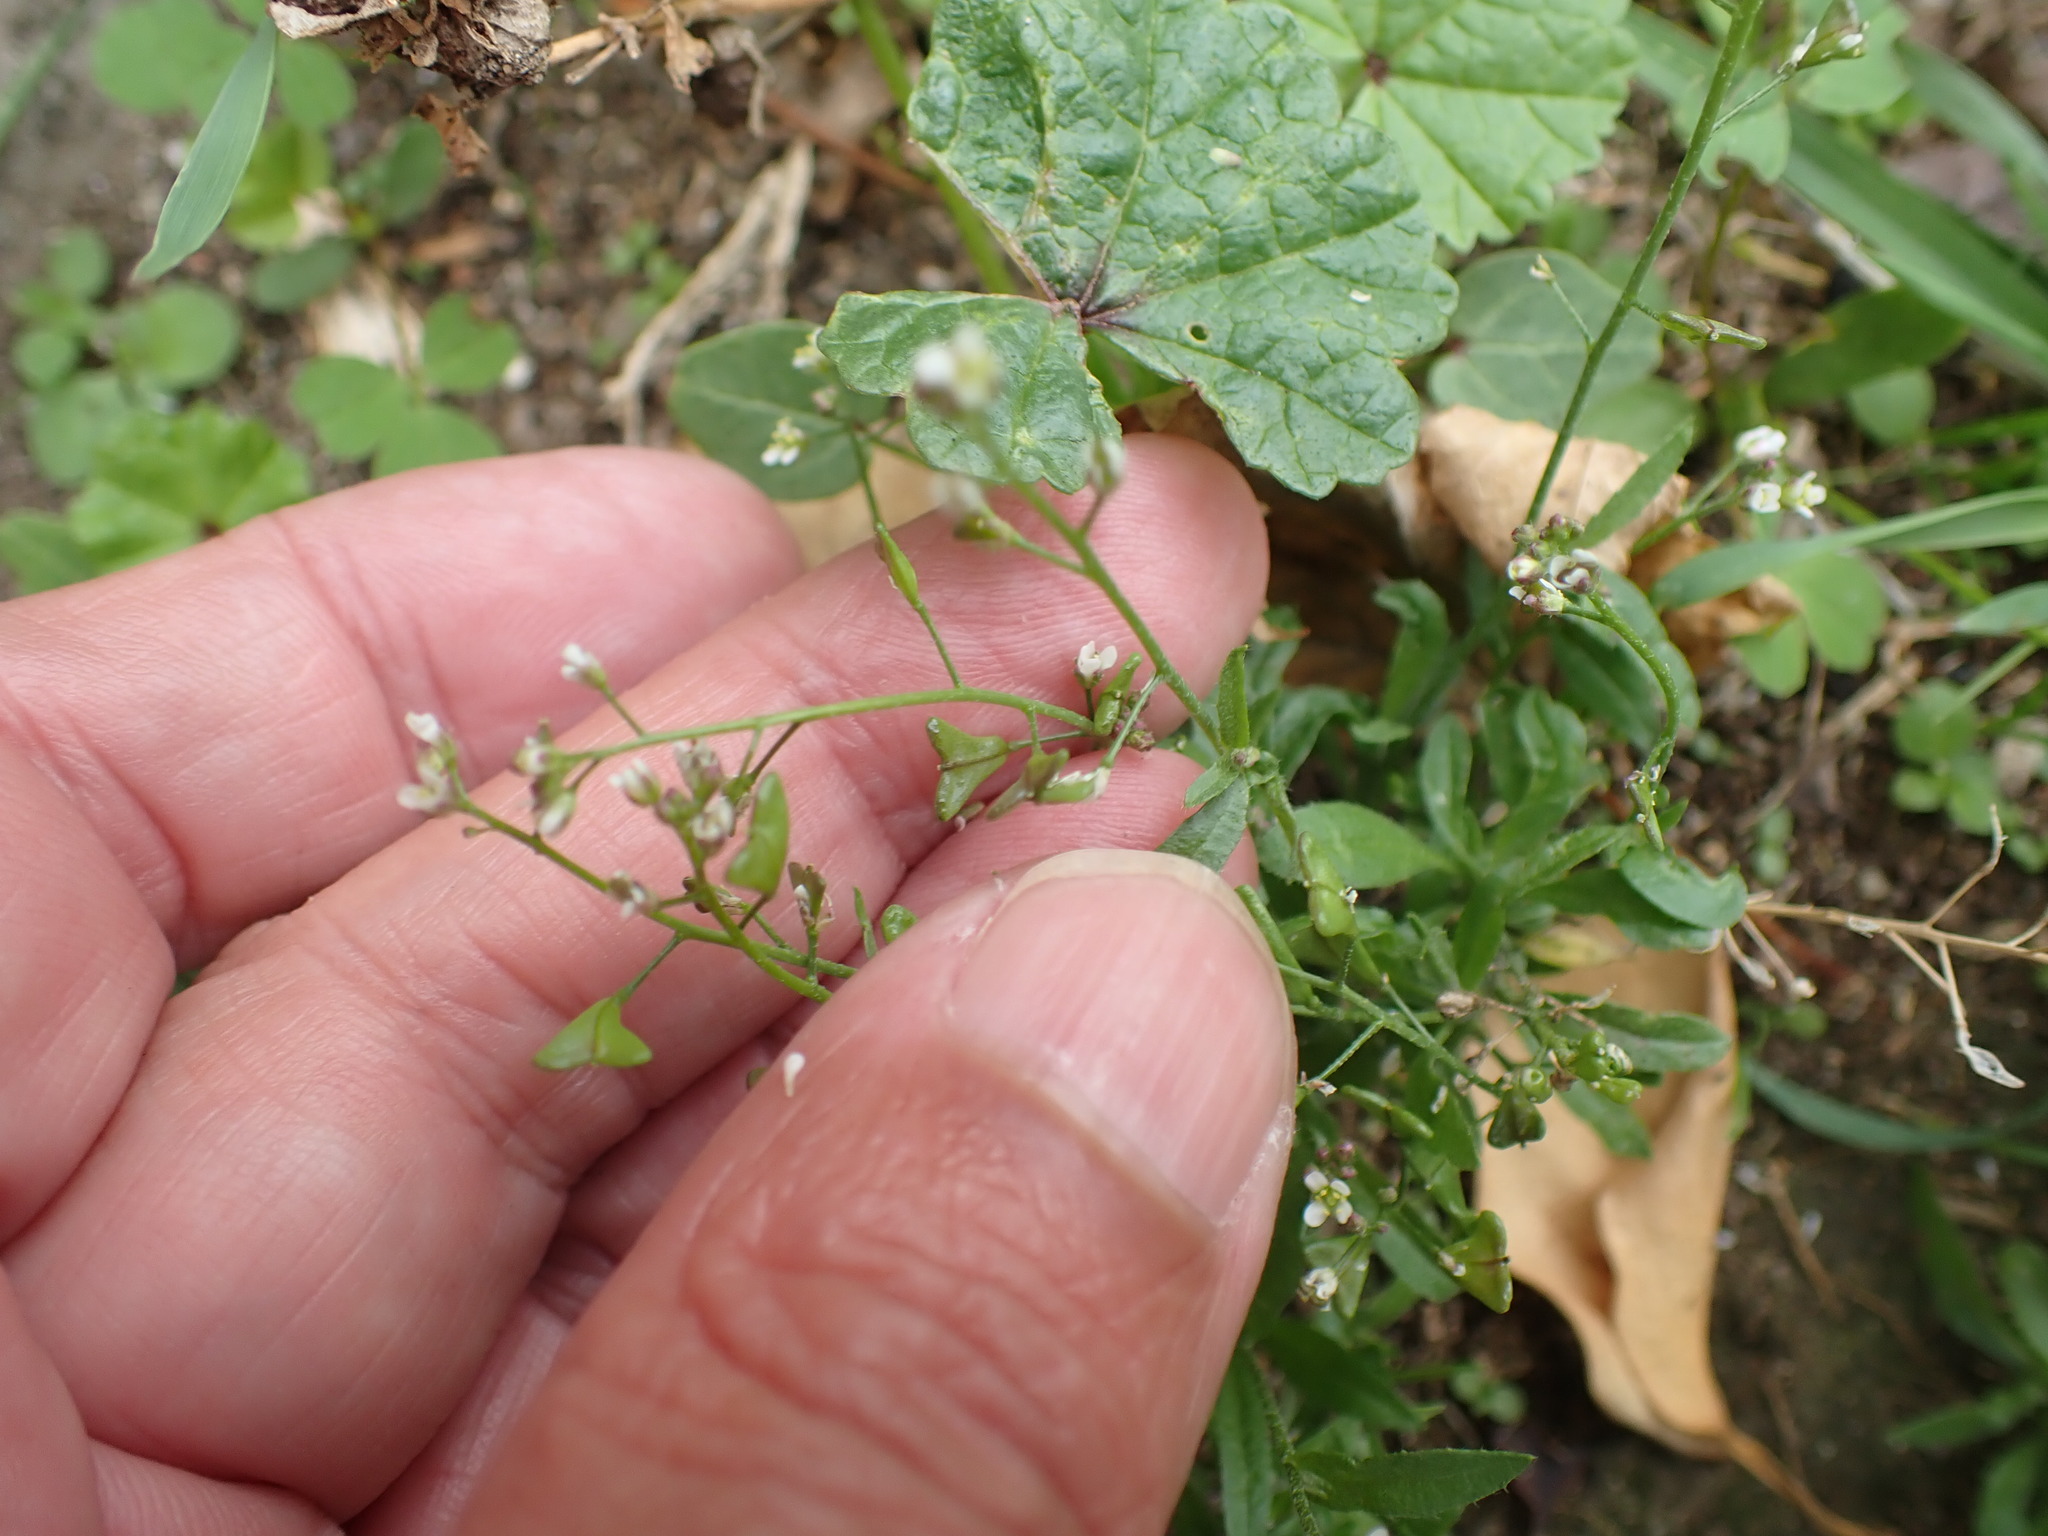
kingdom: Plantae
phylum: Tracheophyta
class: Magnoliopsida
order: Brassicales
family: Brassicaceae
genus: Capsella
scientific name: Capsella bursa-pastoris
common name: Shepherd's purse
